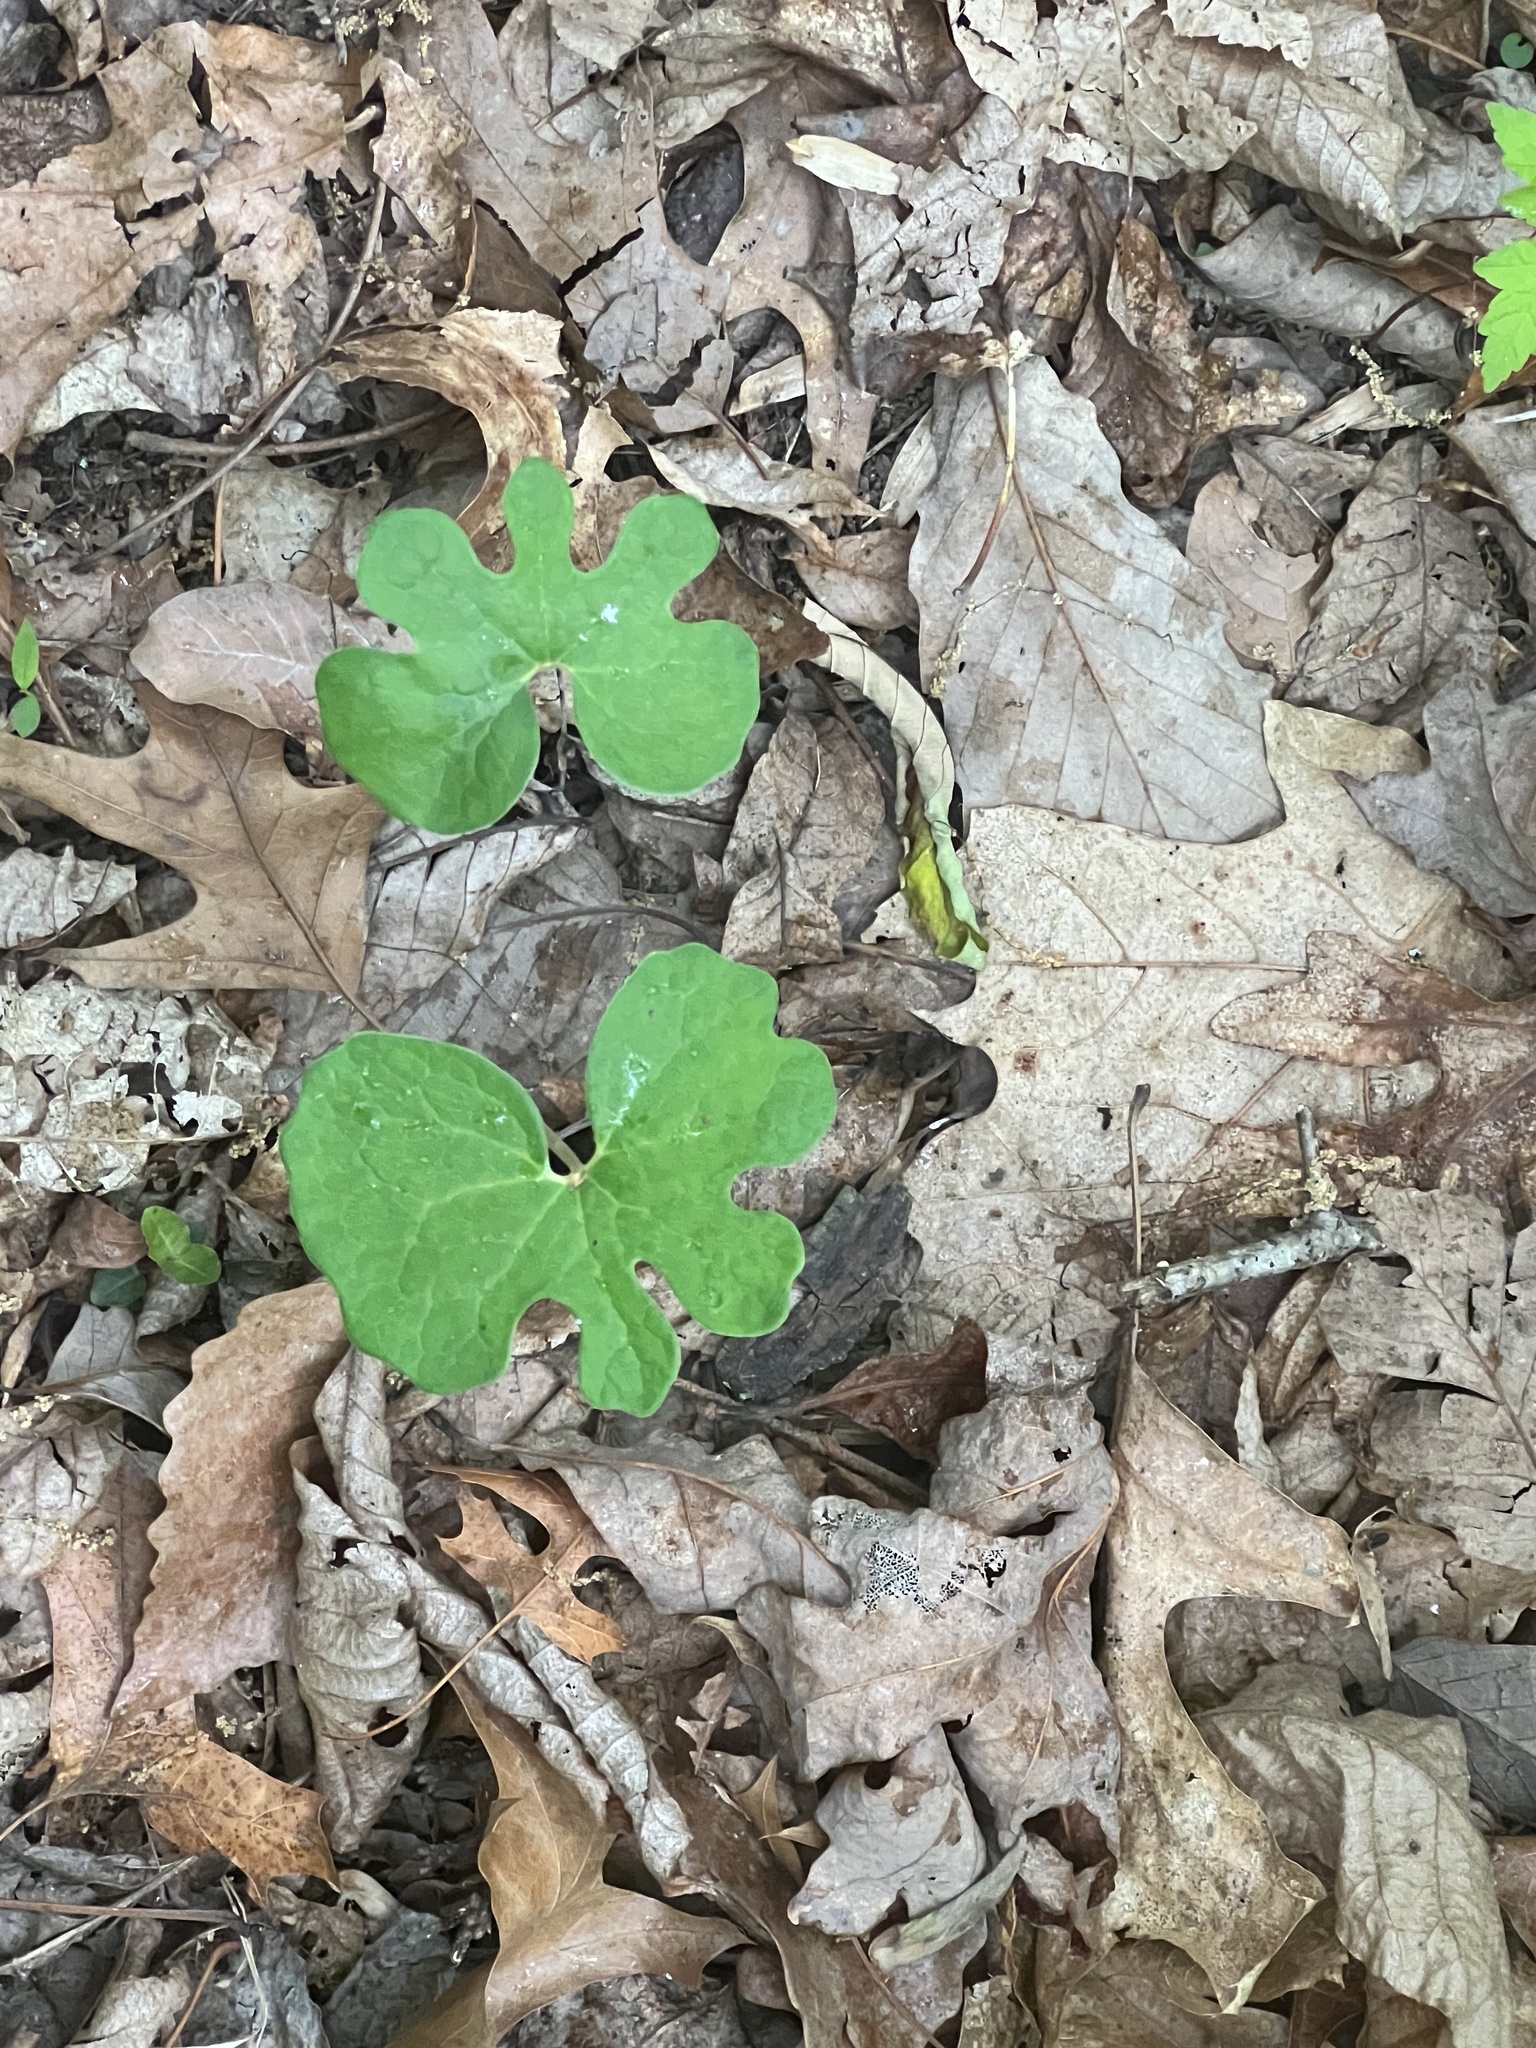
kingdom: Plantae
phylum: Tracheophyta
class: Magnoliopsida
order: Ranunculales
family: Papaveraceae
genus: Sanguinaria
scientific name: Sanguinaria canadensis
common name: Bloodroot
